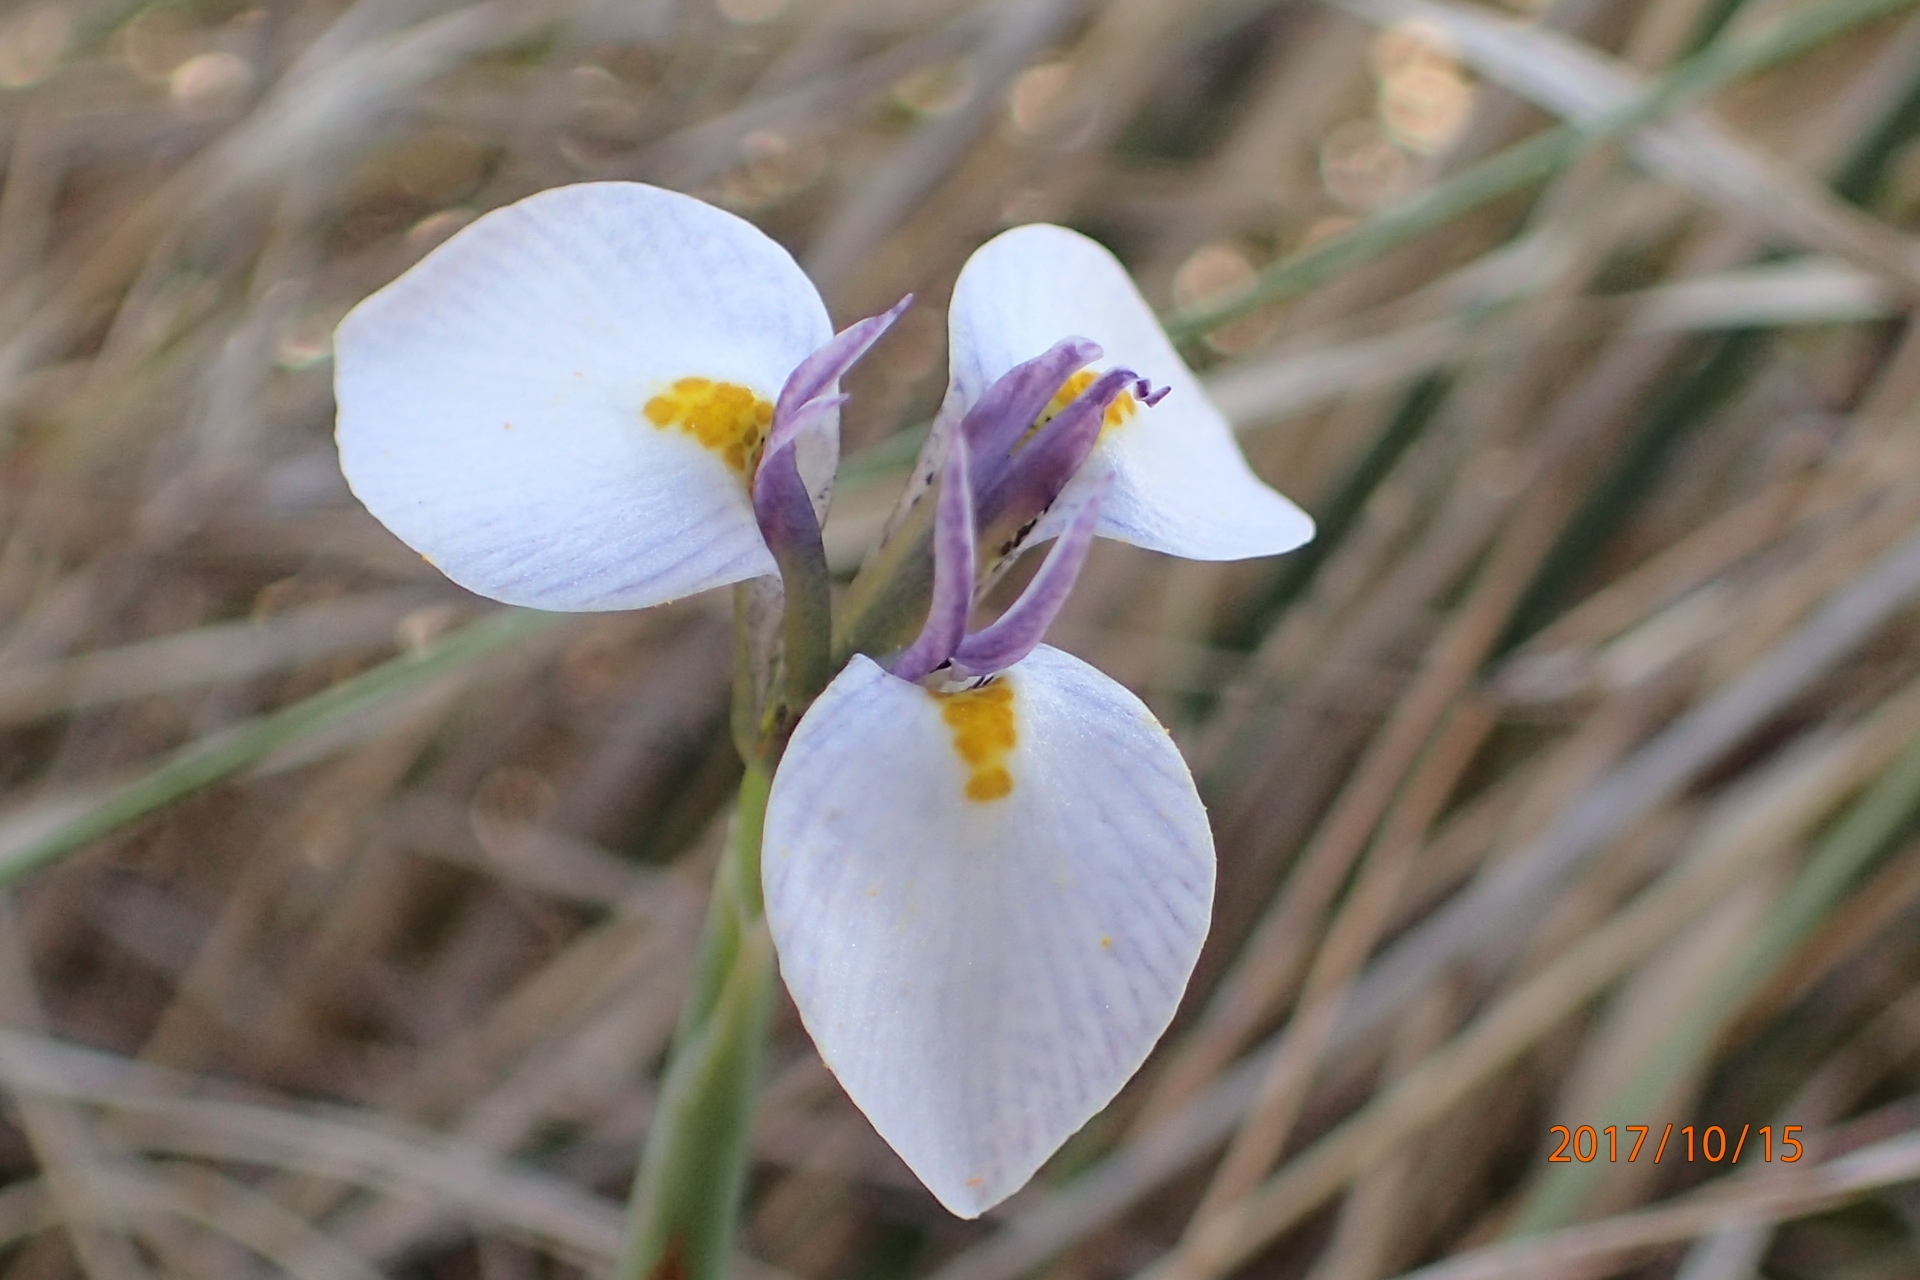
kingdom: Plantae
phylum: Tracheophyta
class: Liliopsida
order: Asparagales
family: Iridaceae
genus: Moraea
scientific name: Moraea modesta
